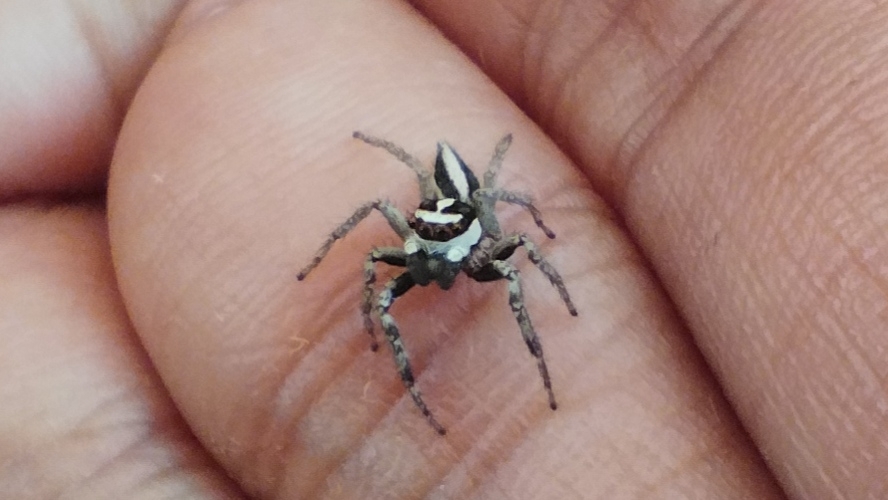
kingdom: Animalia
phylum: Arthropoda
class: Arachnida
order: Araneae
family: Salticidae
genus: Plexippus
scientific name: Plexippus paykulli
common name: Pantropical jumper
